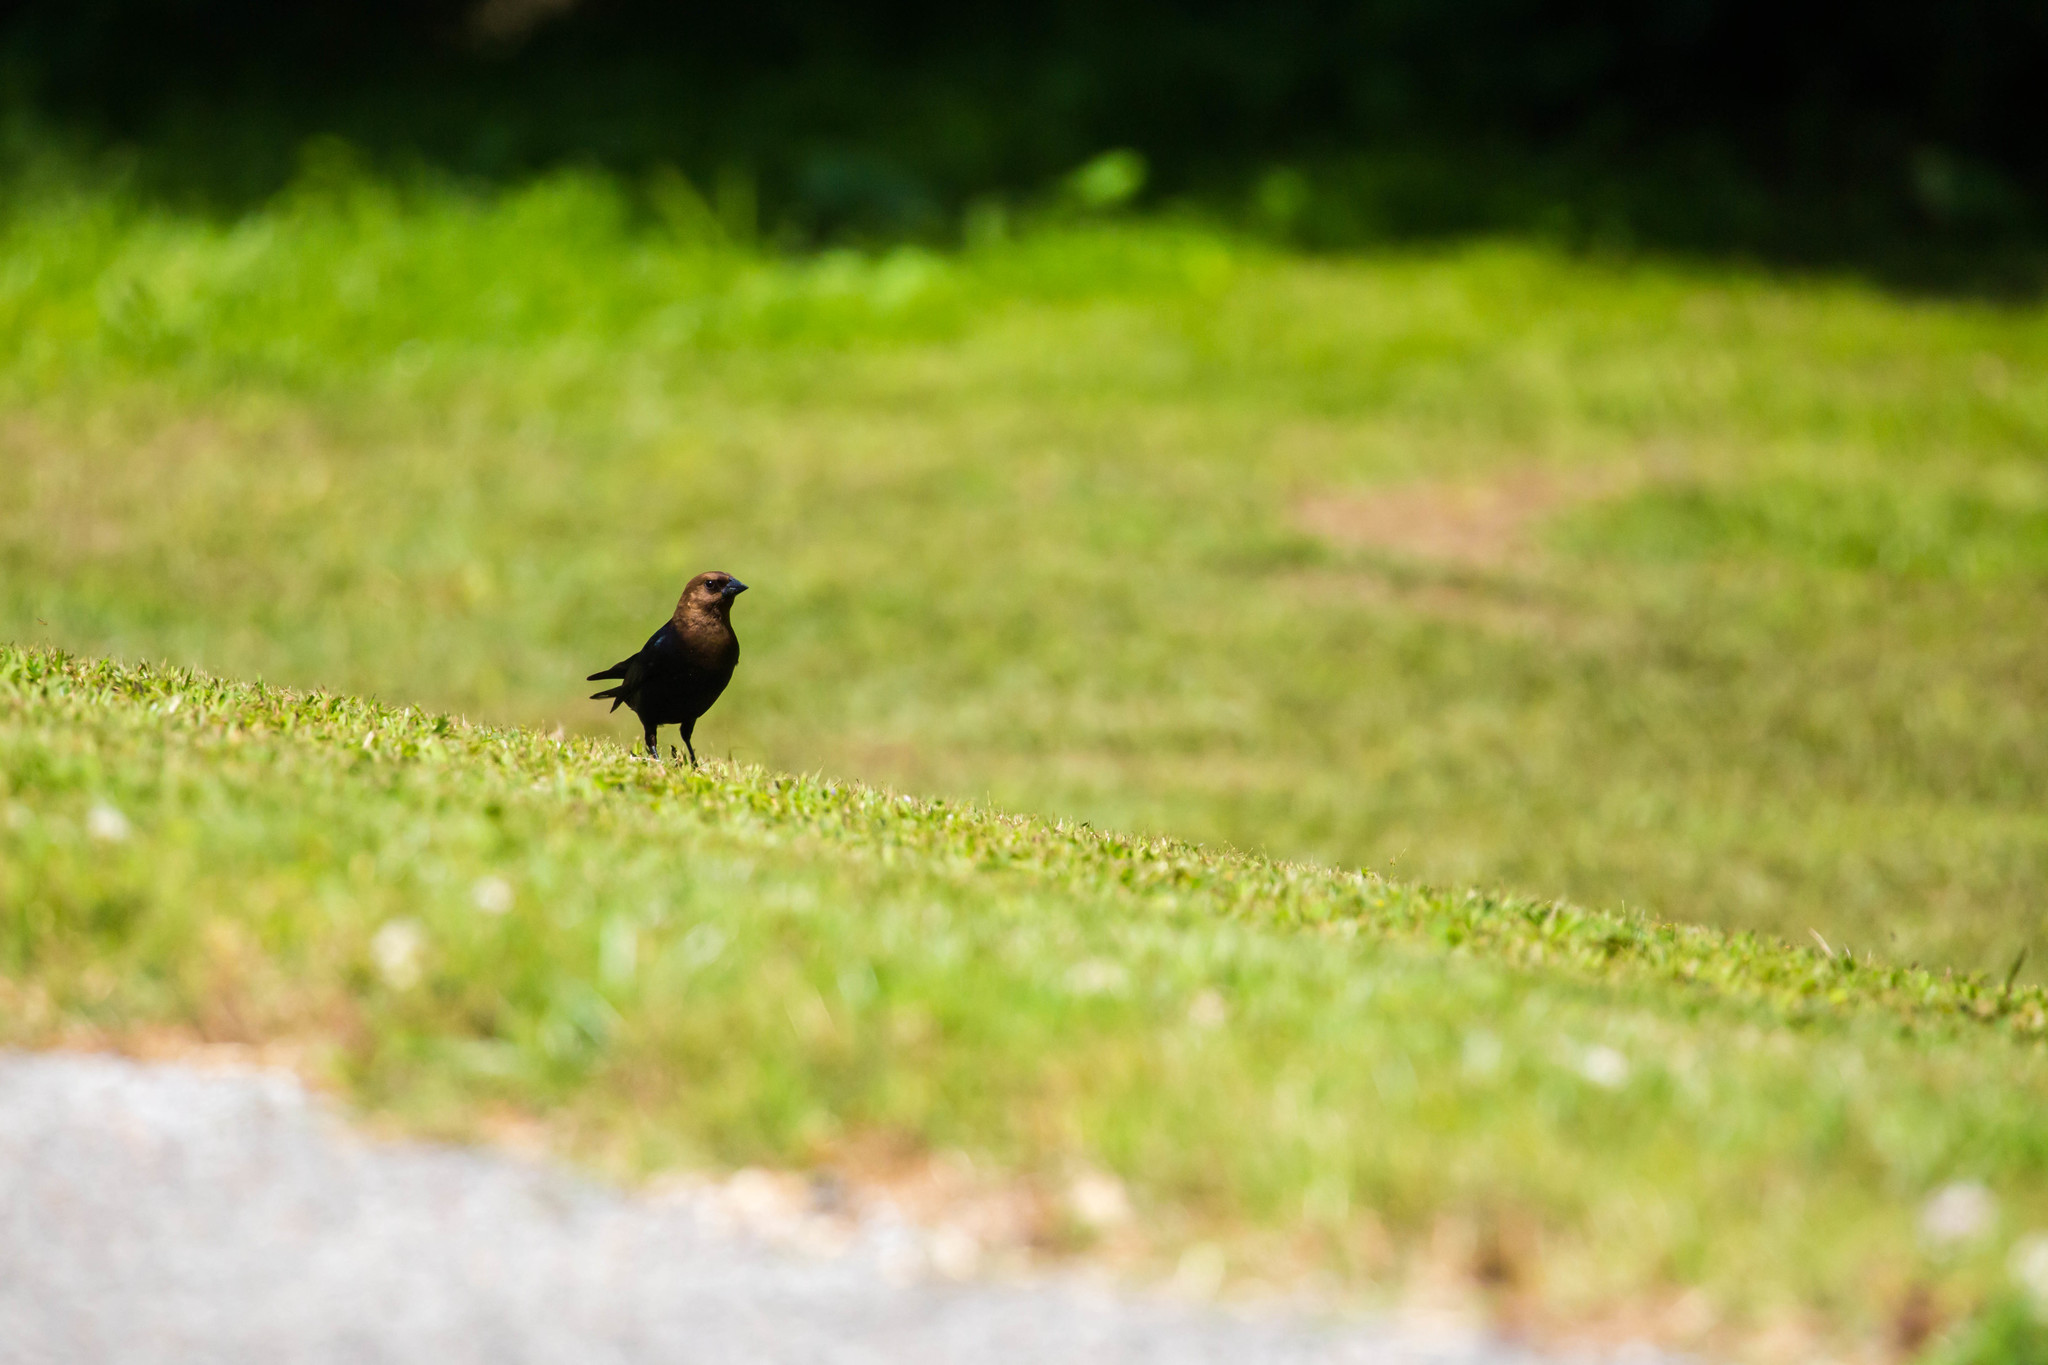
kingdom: Animalia
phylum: Chordata
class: Aves
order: Passeriformes
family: Icteridae
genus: Molothrus
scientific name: Molothrus ater
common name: Brown-headed cowbird
